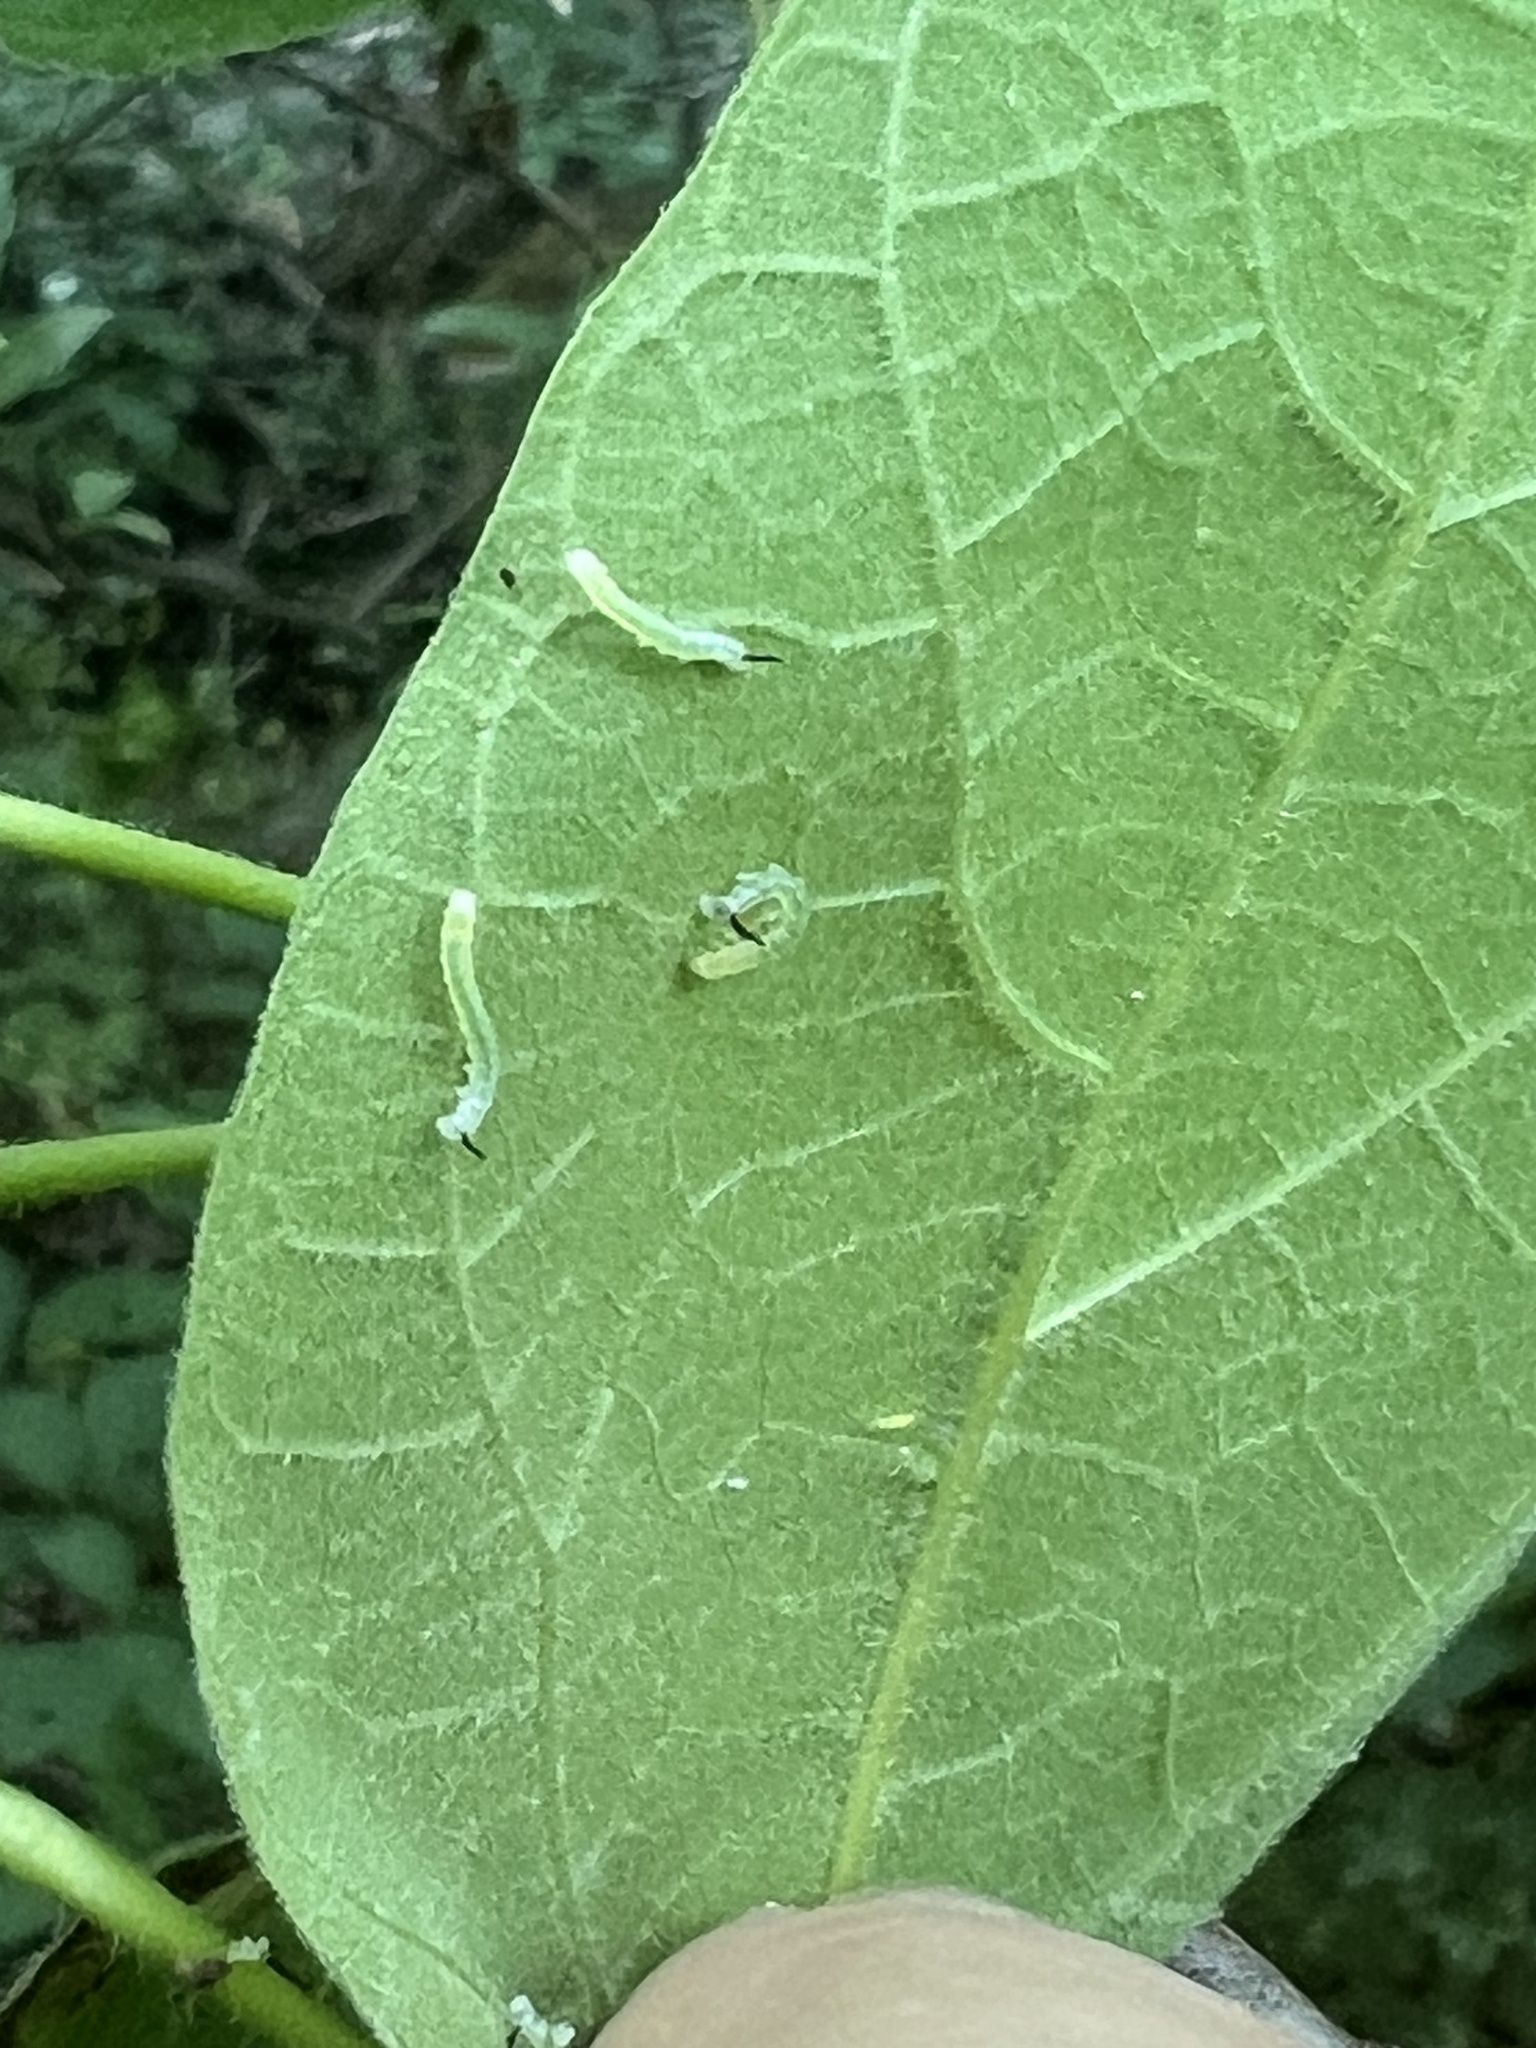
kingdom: Animalia
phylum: Arthropoda
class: Insecta
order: Lepidoptera
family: Sphingidae
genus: Ceratomia
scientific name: Ceratomia catalpae
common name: Catalpa hornworm
